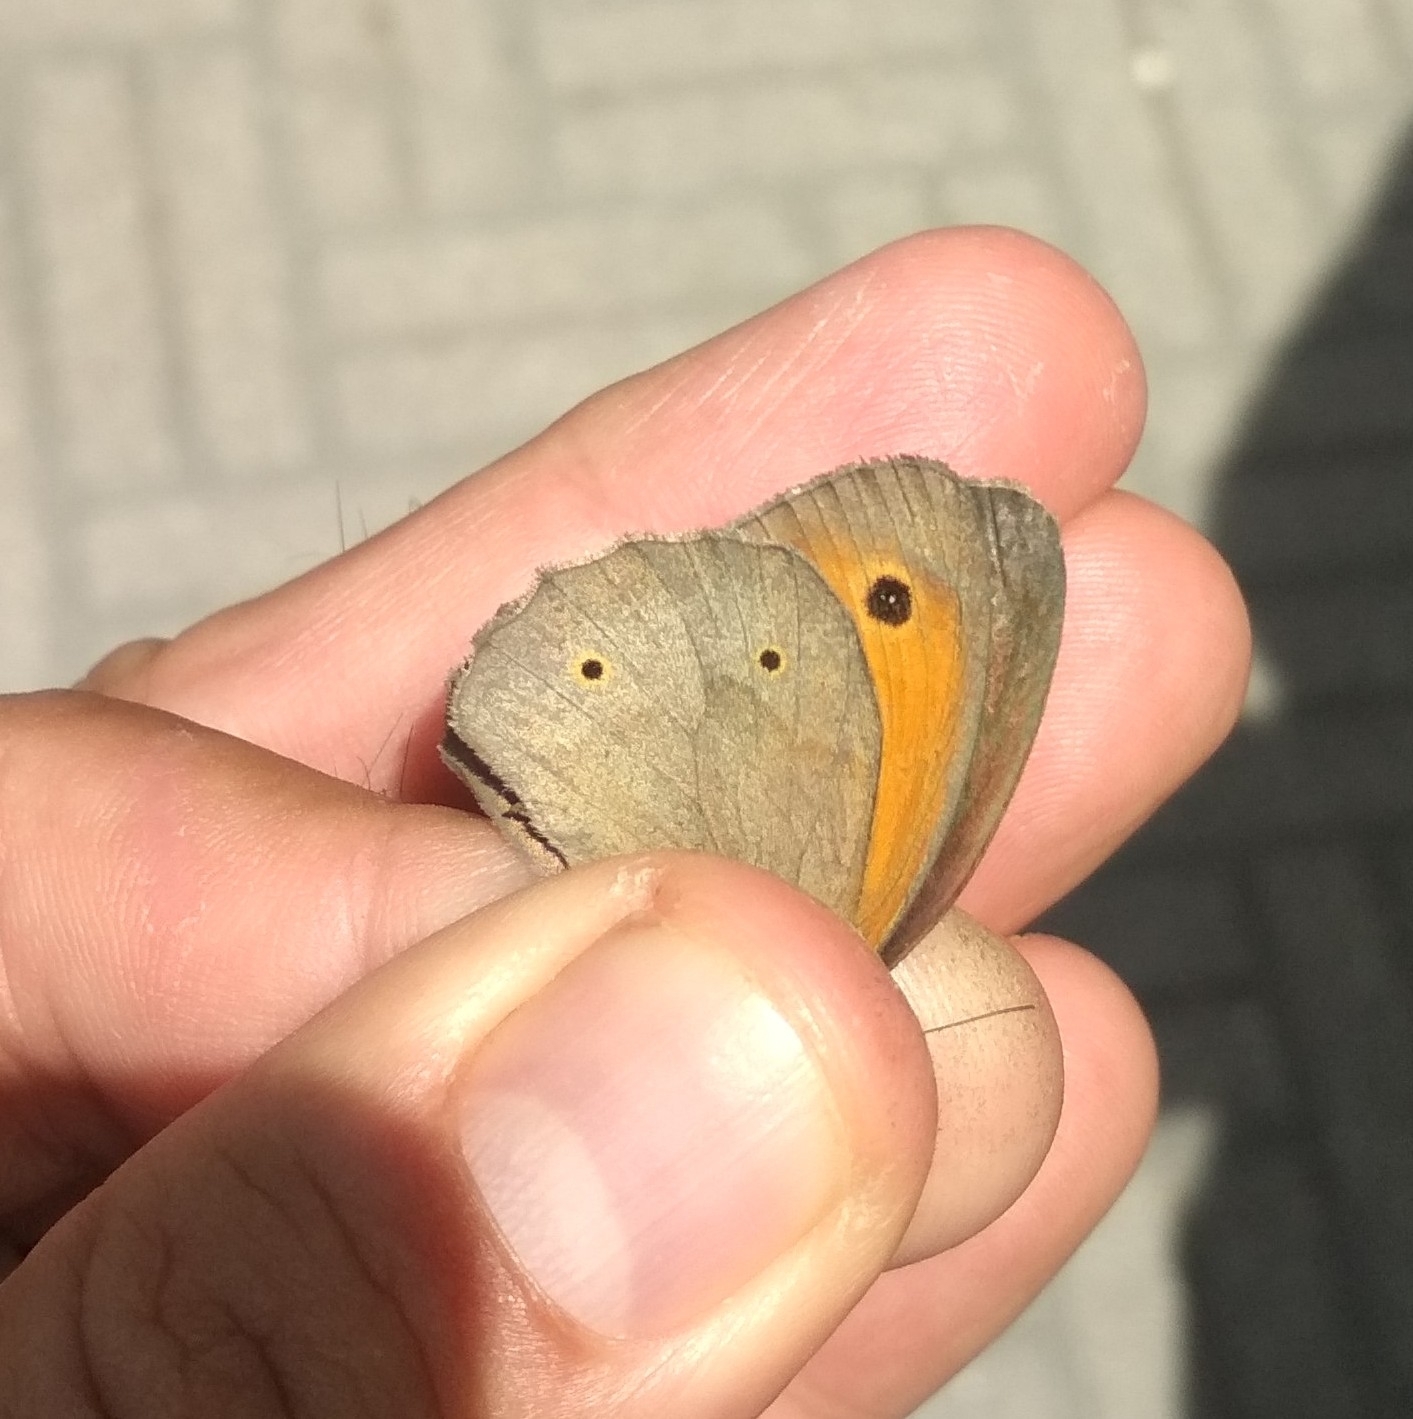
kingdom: Animalia
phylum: Arthropoda
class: Insecta
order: Lepidoptera
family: Nymphalidae
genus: Maniola
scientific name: Maniola jurtina
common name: Meadow brown
